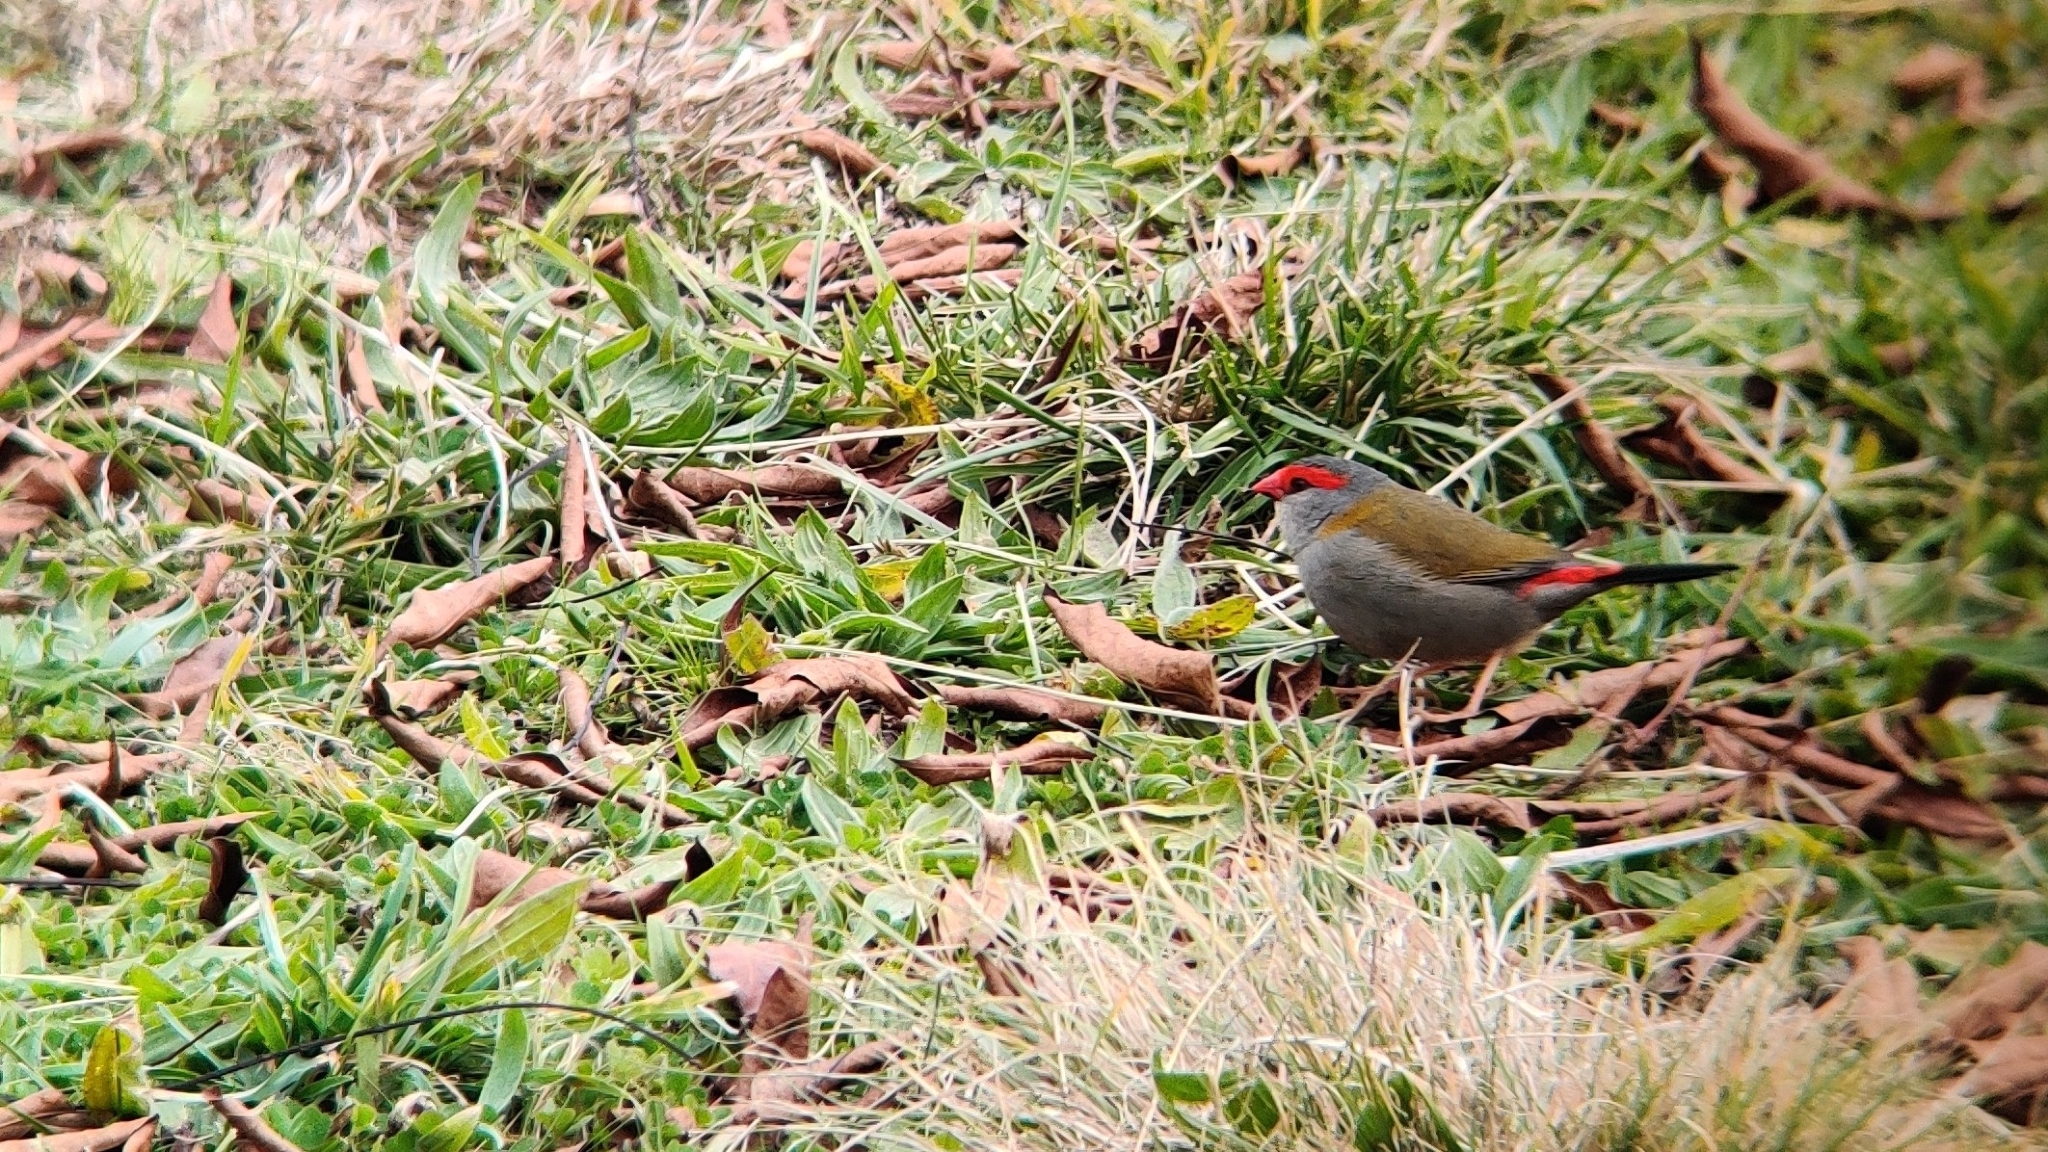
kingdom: Animalia
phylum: Chordata
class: Aves
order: Passeriformes
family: Estrildidae
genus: Neochmia
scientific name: Neochmia temporalis
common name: Red-browed finch
